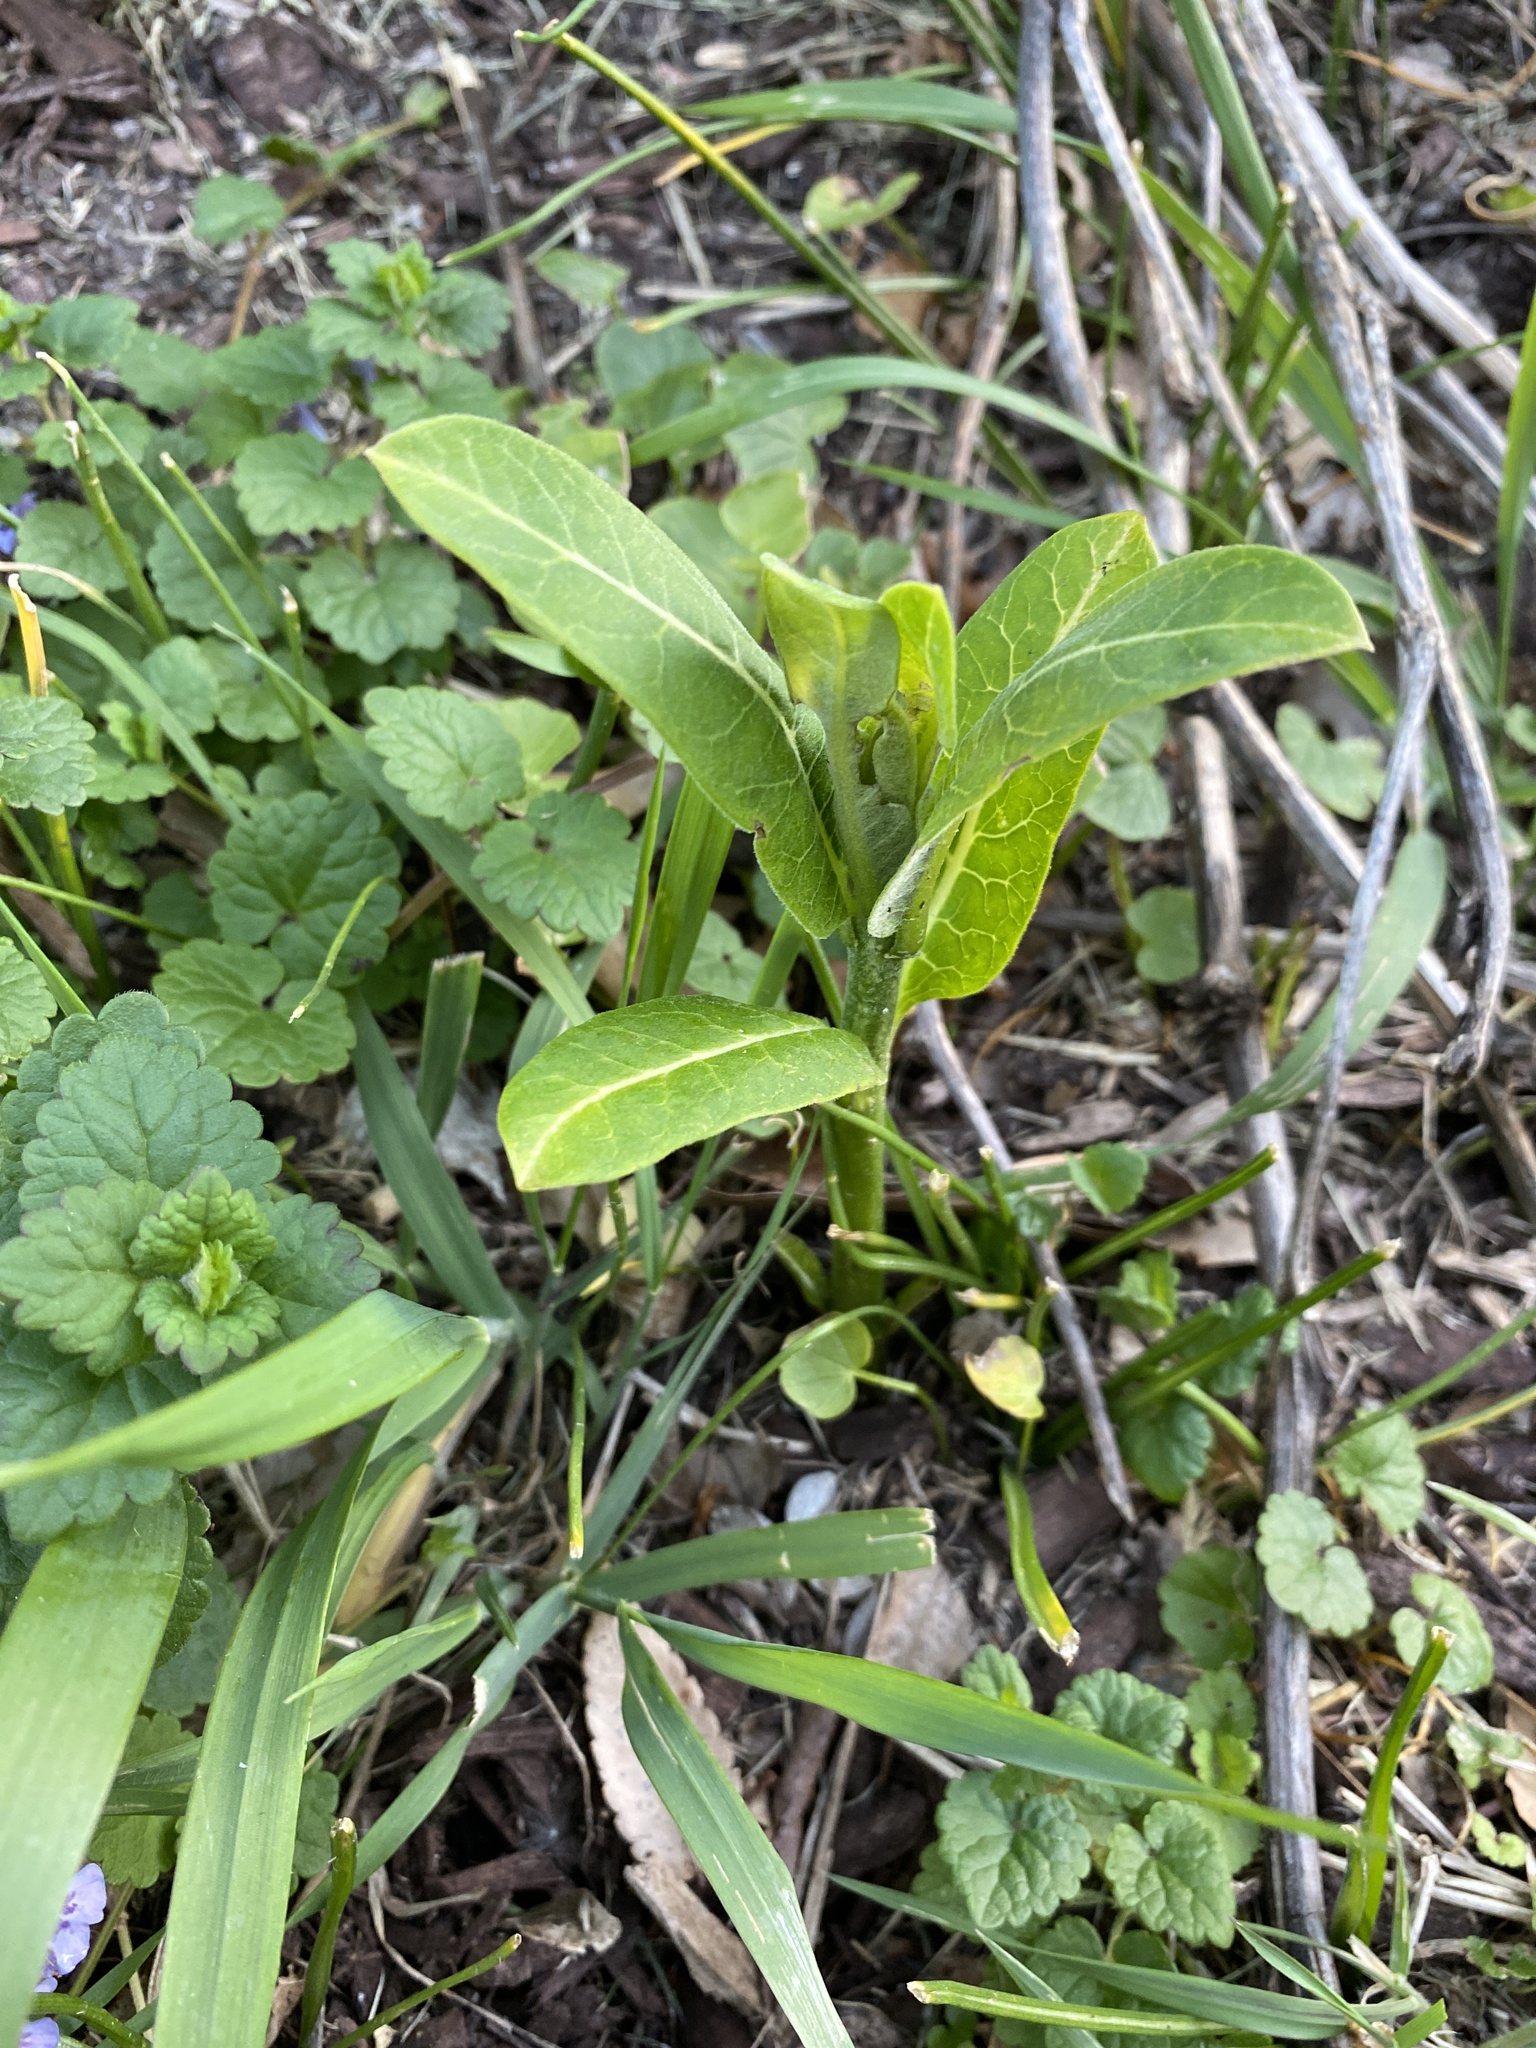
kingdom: Plantae
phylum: Tracheophyta
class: Magnoliopsida
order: Gentianales
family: Apocynaceae
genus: Asclepias
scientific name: Asclepias syriaca
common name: Common milkweed
